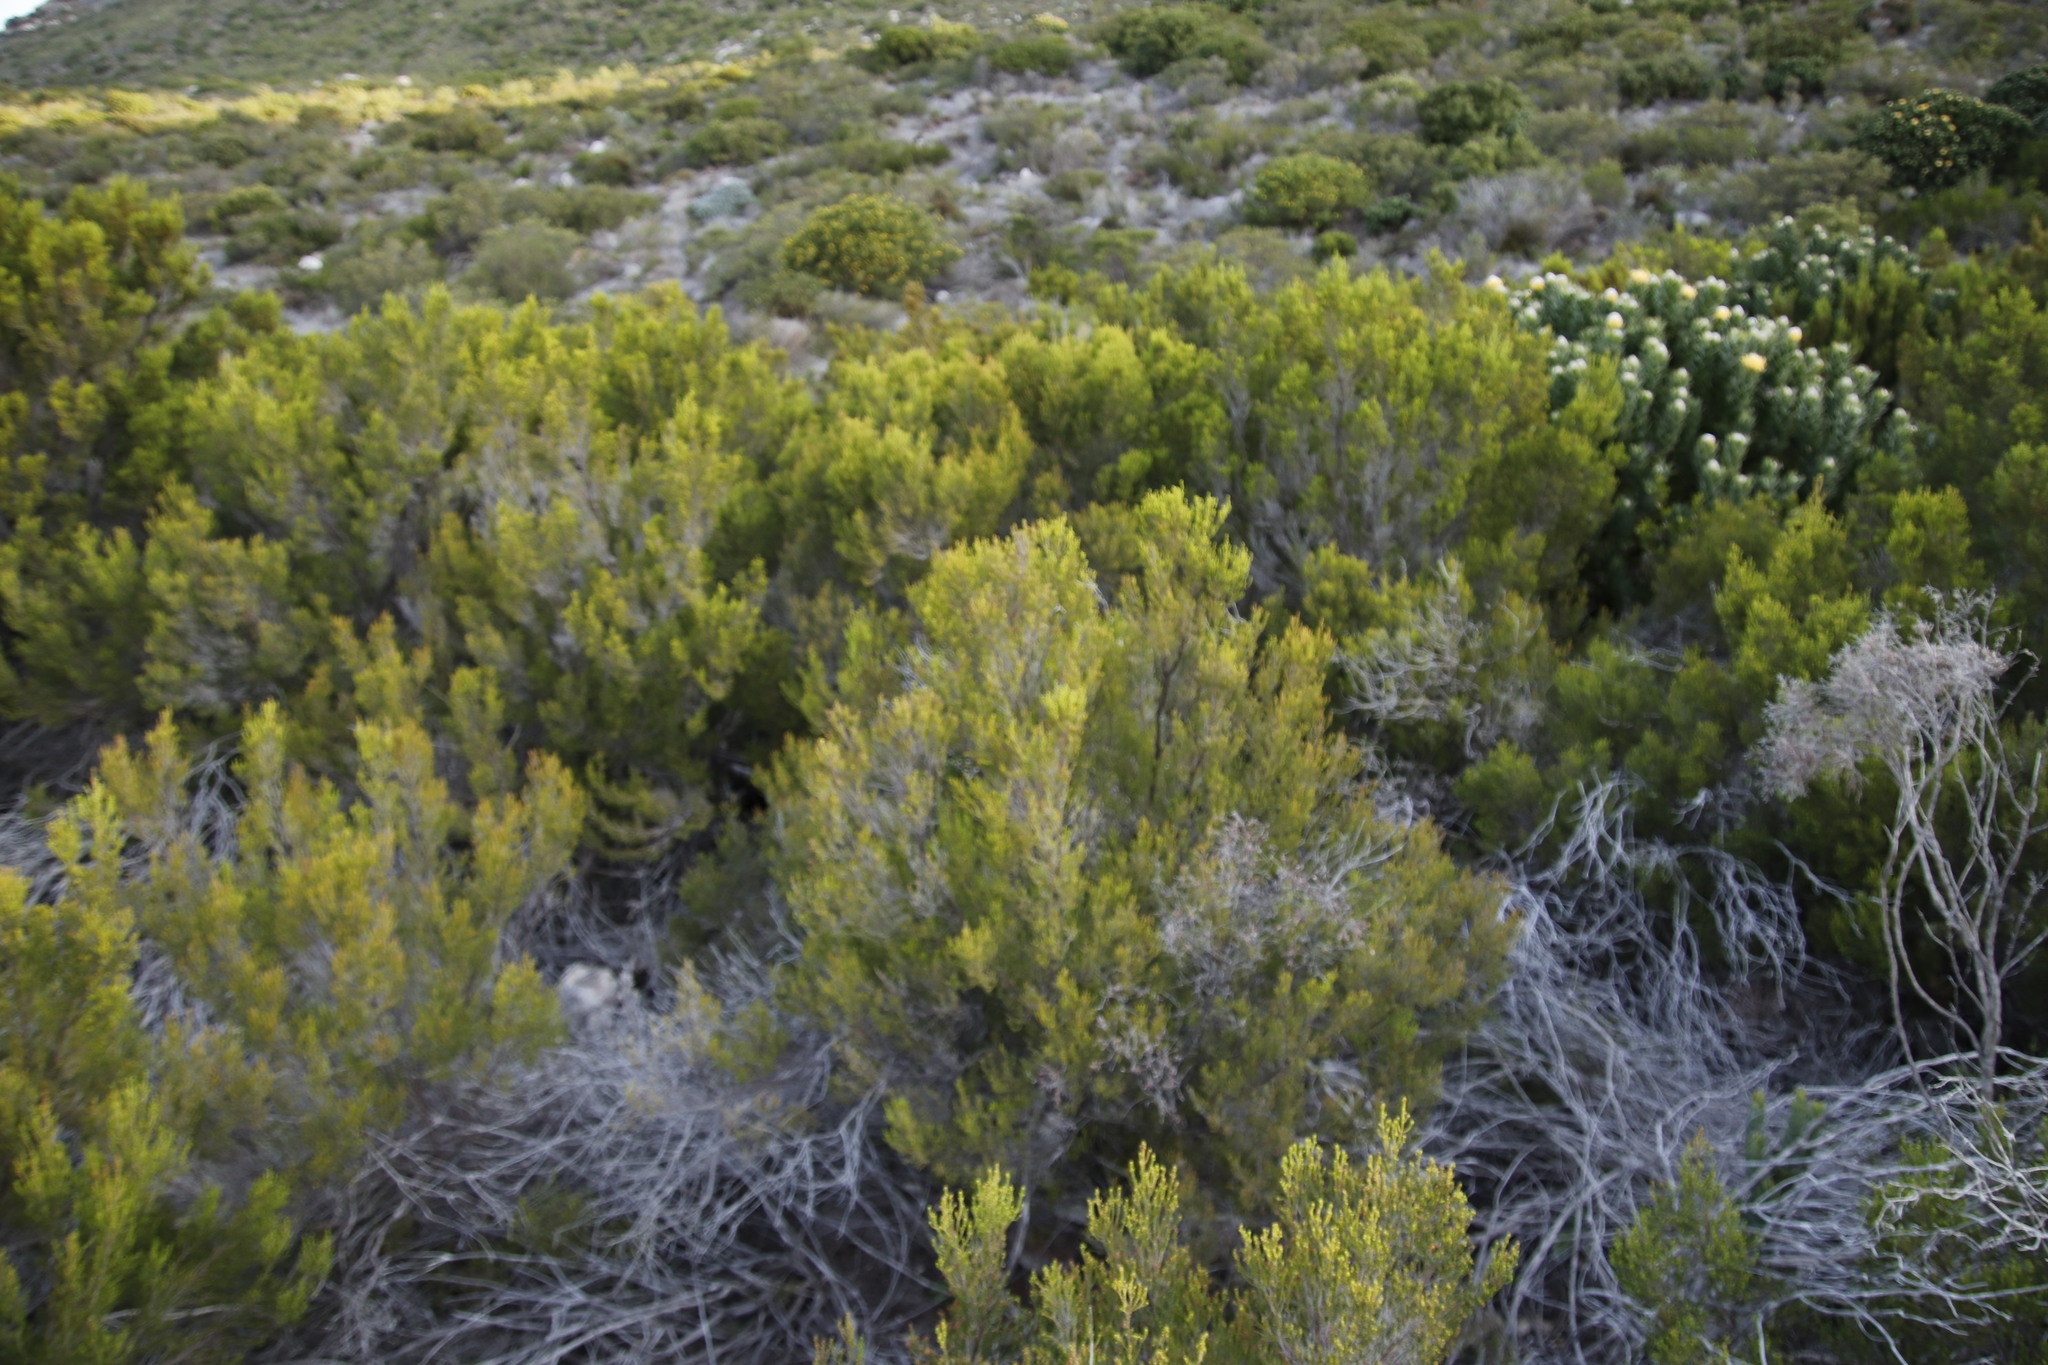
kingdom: Plantae
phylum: Tracheophyta
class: Magnoliopsida
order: Ericales
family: Ericaceae
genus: Erica
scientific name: Erica tristis
